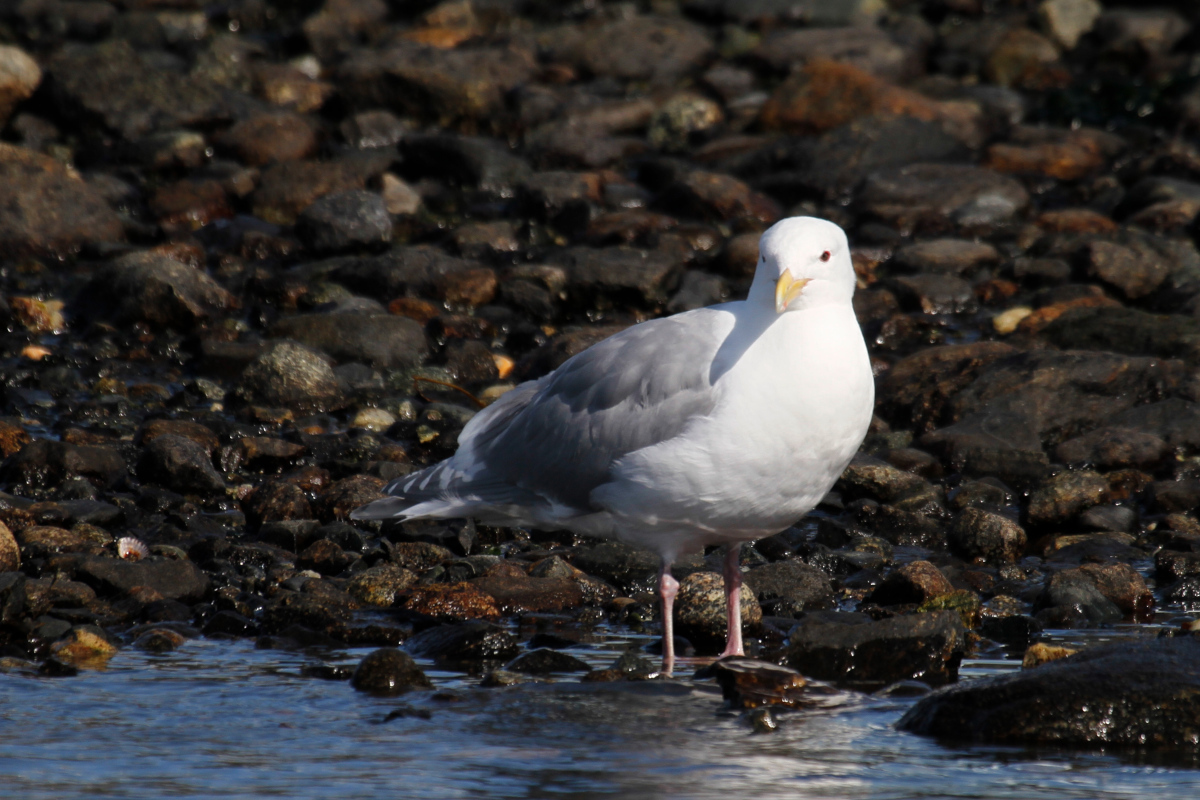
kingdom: Animalia
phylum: Chordata
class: Aves
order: Charadriiformes
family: Laridae
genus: Larus
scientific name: Larus glaucescens
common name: Glaucous-winged gull
